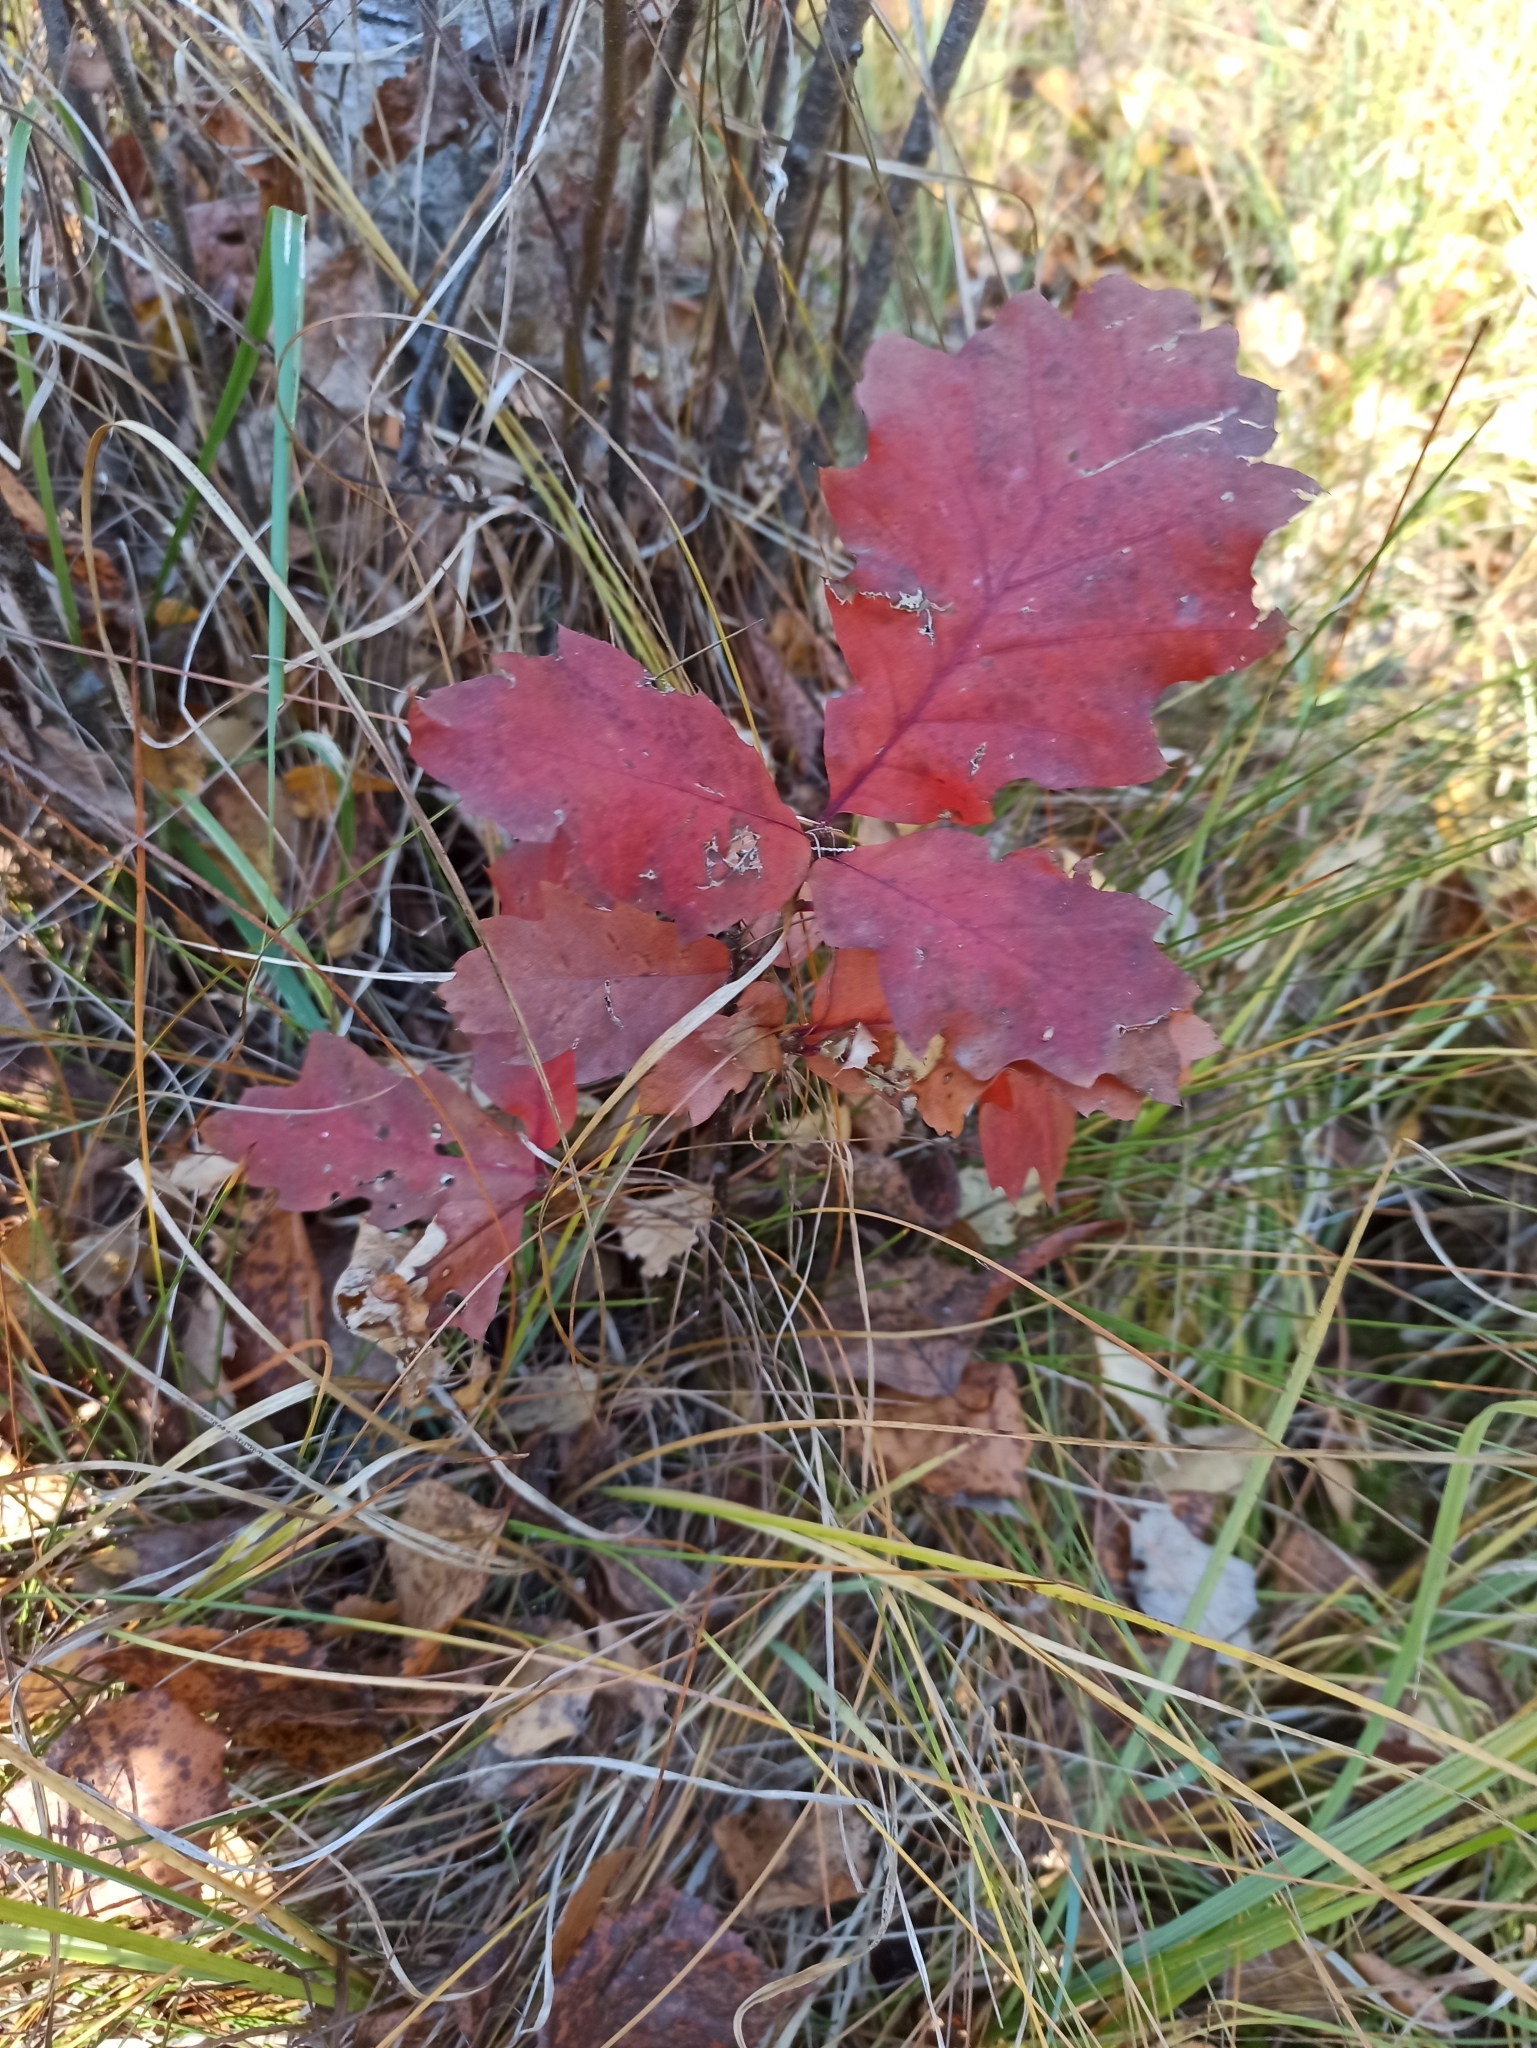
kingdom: Plantae
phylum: Tracheophyta
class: Magnoliopsida
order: Fagales
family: Fagaceae
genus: Quercus
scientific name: Quercus rubra
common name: Red oak
